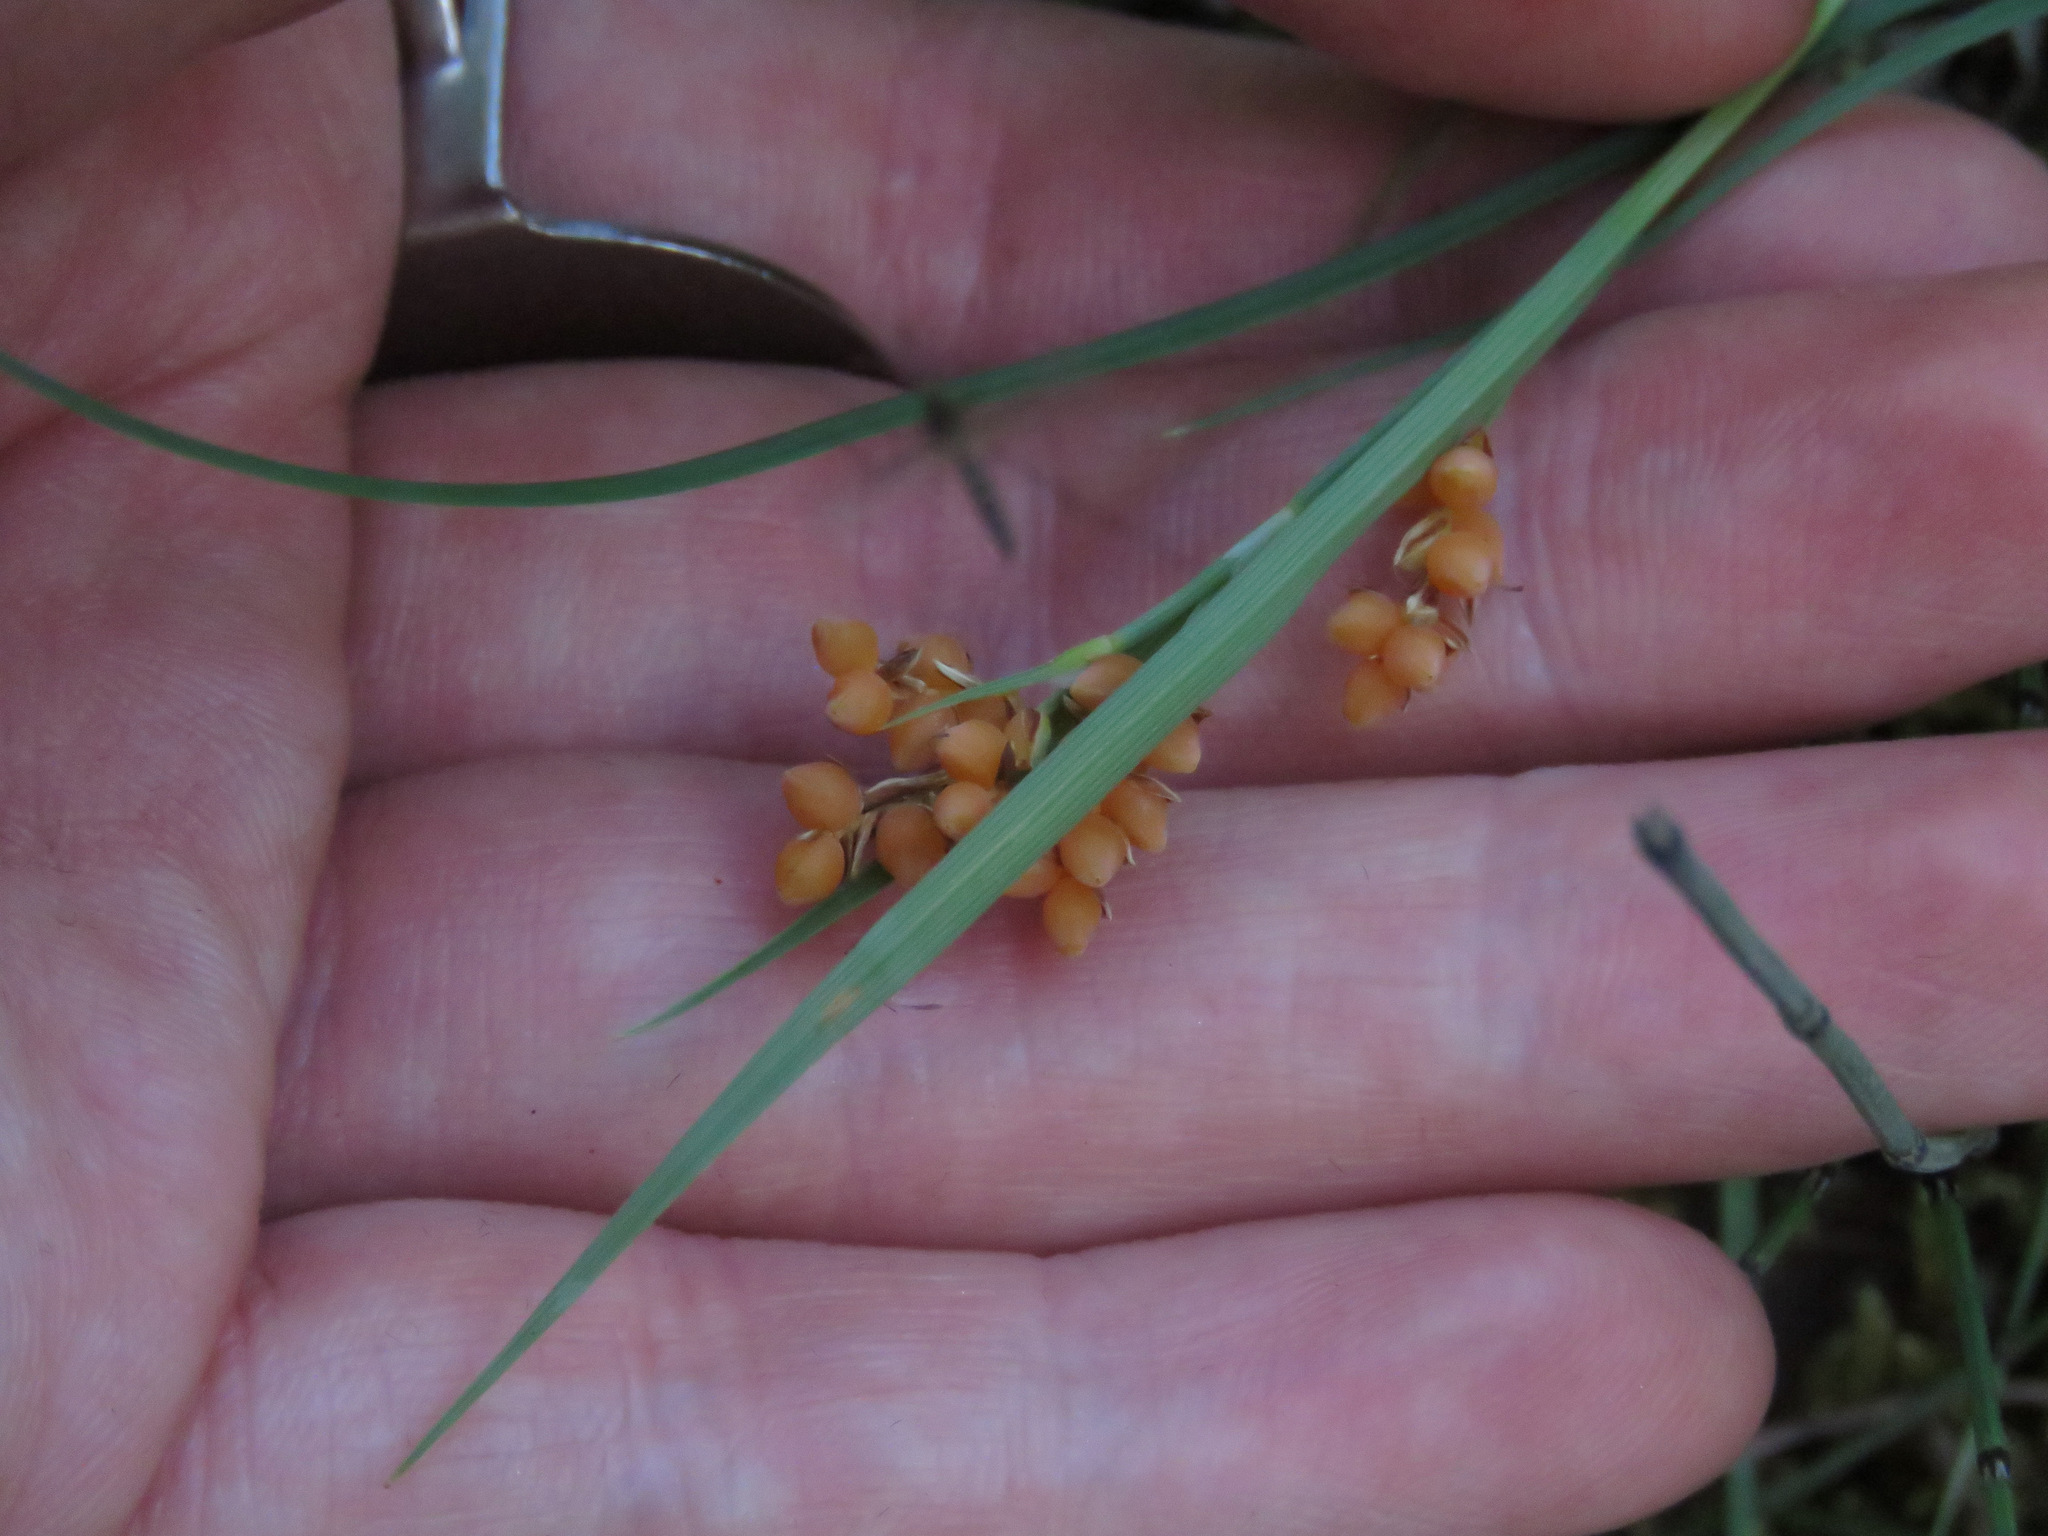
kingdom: Plantae
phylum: Tracheophyta
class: Liliopsida
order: Poales
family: Cyperaceae
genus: Carex
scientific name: Carex aurea
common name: Golden sedge
